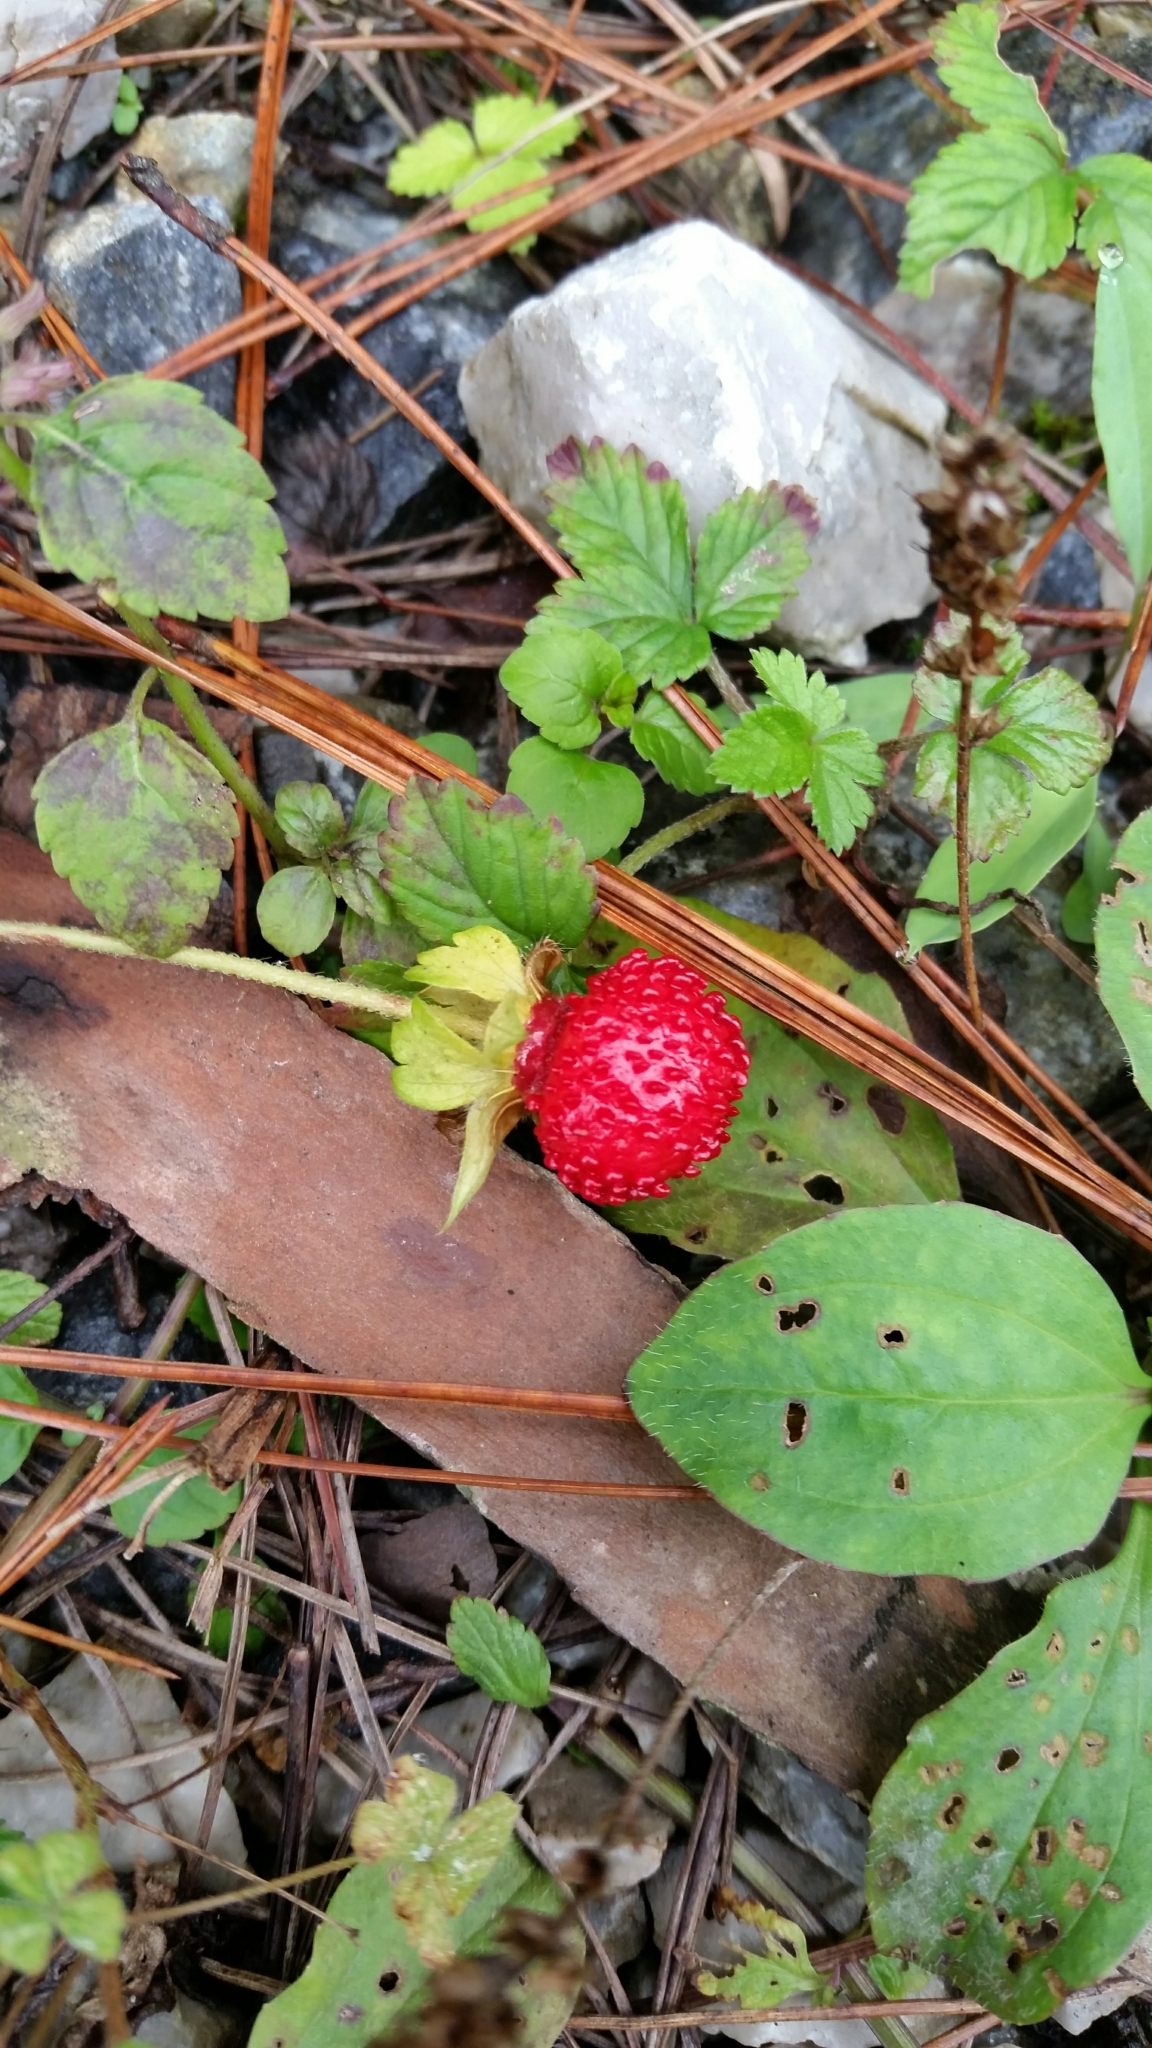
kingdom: Plantae
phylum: Tracheophyta
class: Magnoliopsida
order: Rosales
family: Rosaceae
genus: Potentilla
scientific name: Potentilla indica
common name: Yellow-flowered strawberry
